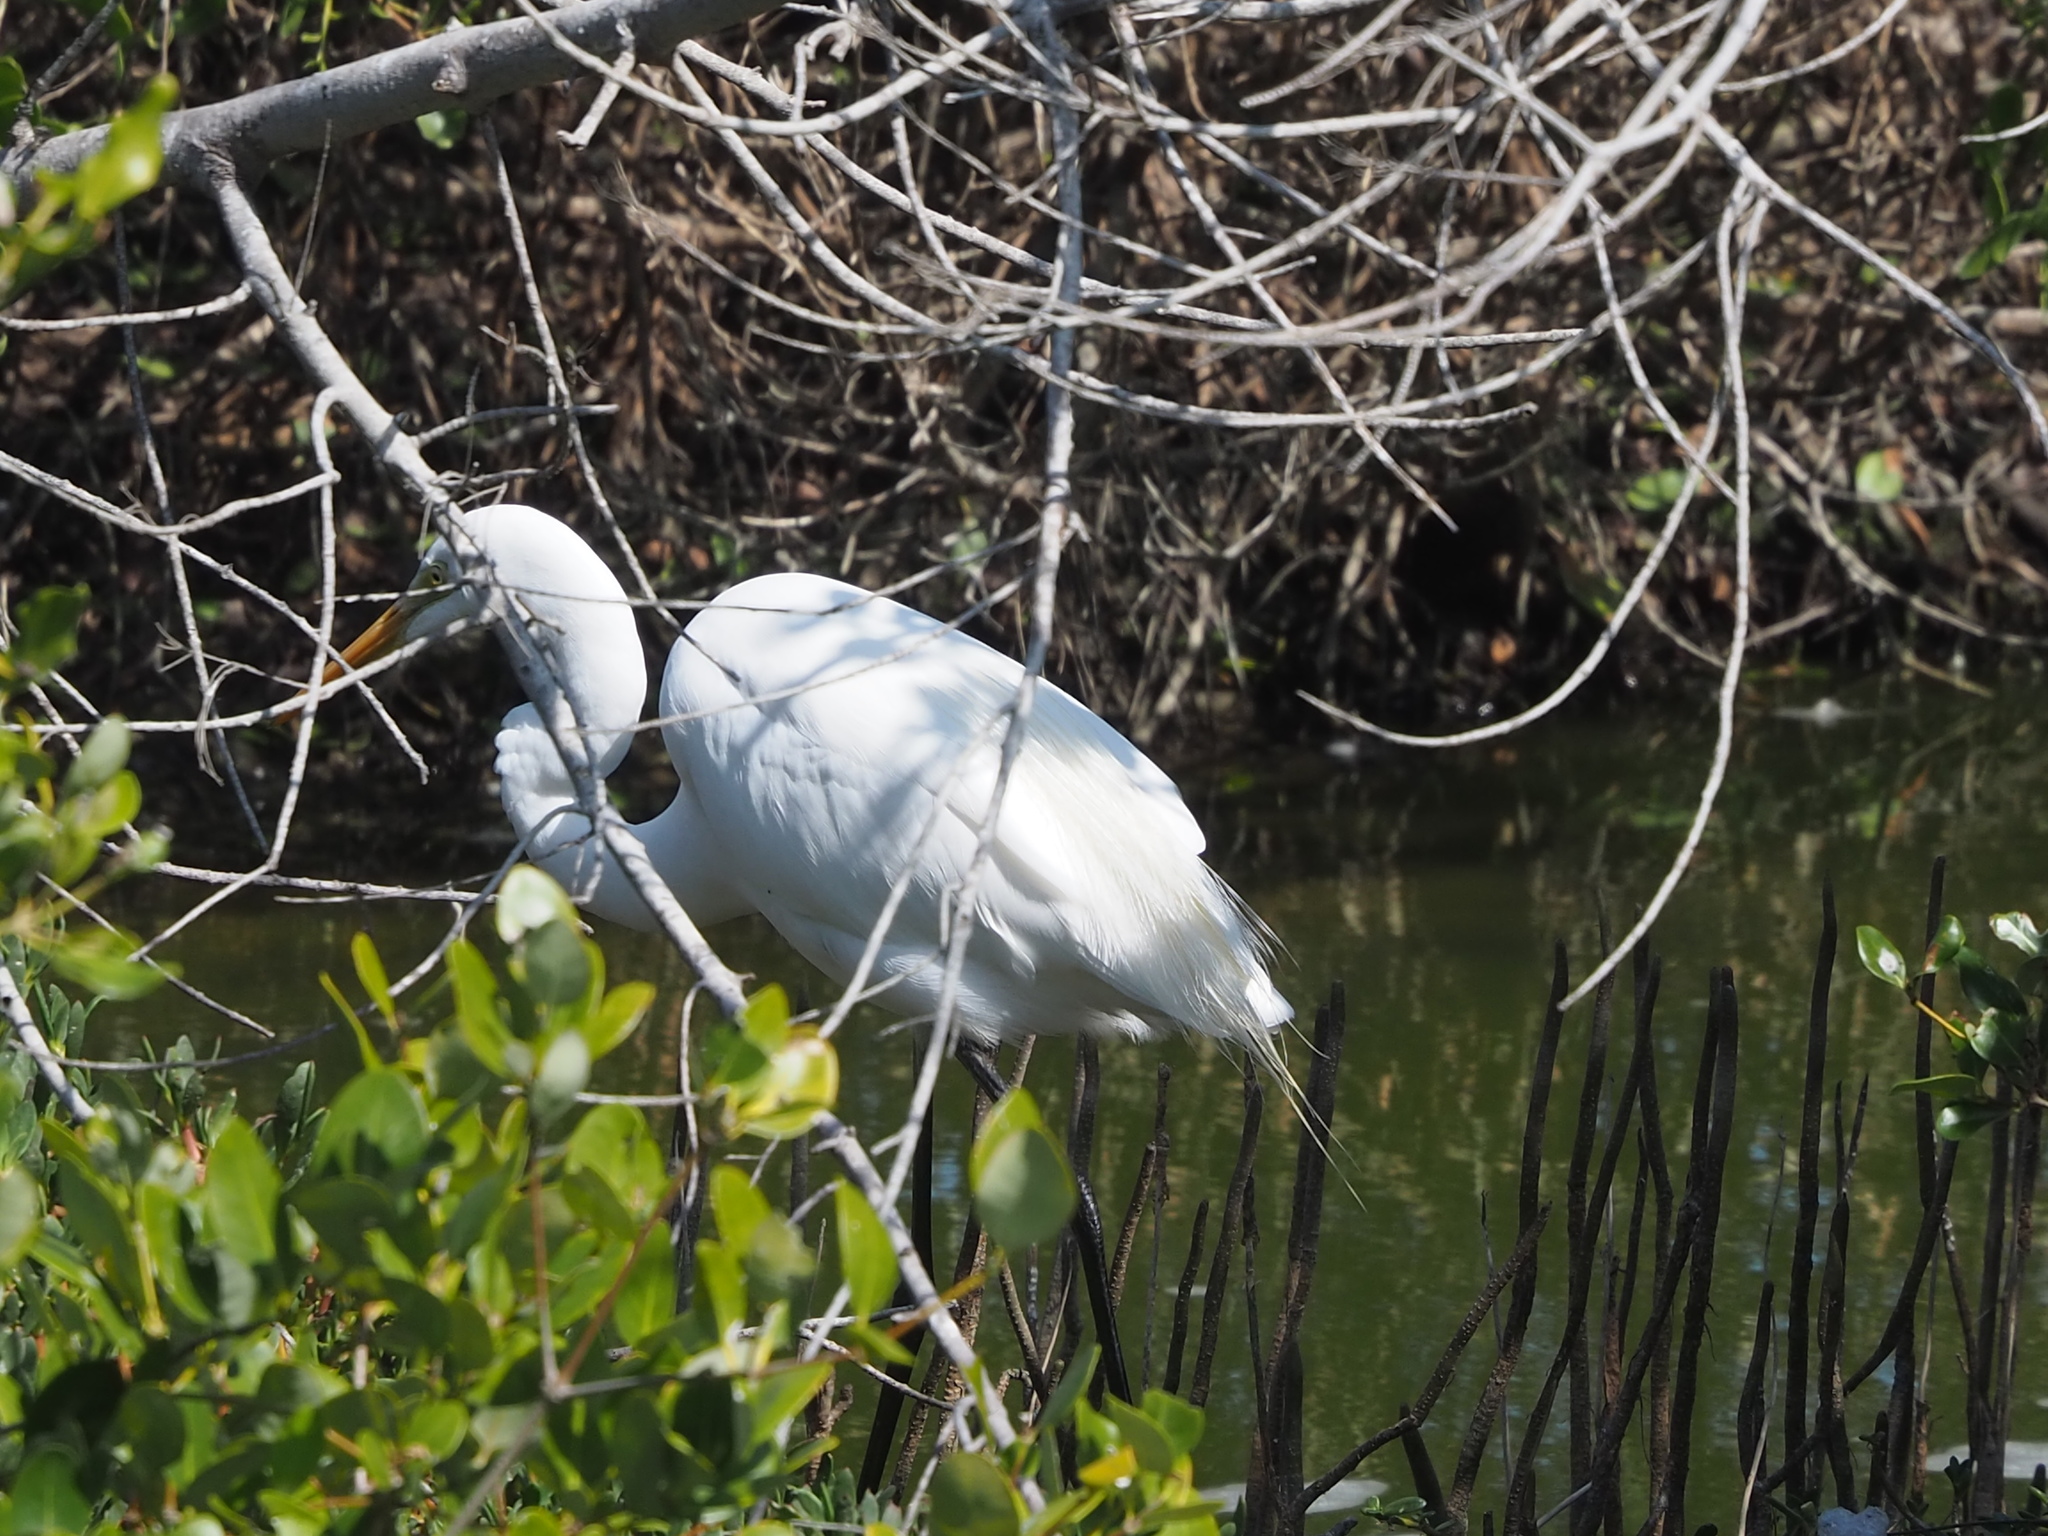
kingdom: Animalia
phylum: Chordata
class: Aves
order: Pelecaniformes
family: Ardeidae
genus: Ardea
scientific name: Ardea alba
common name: Great egret
